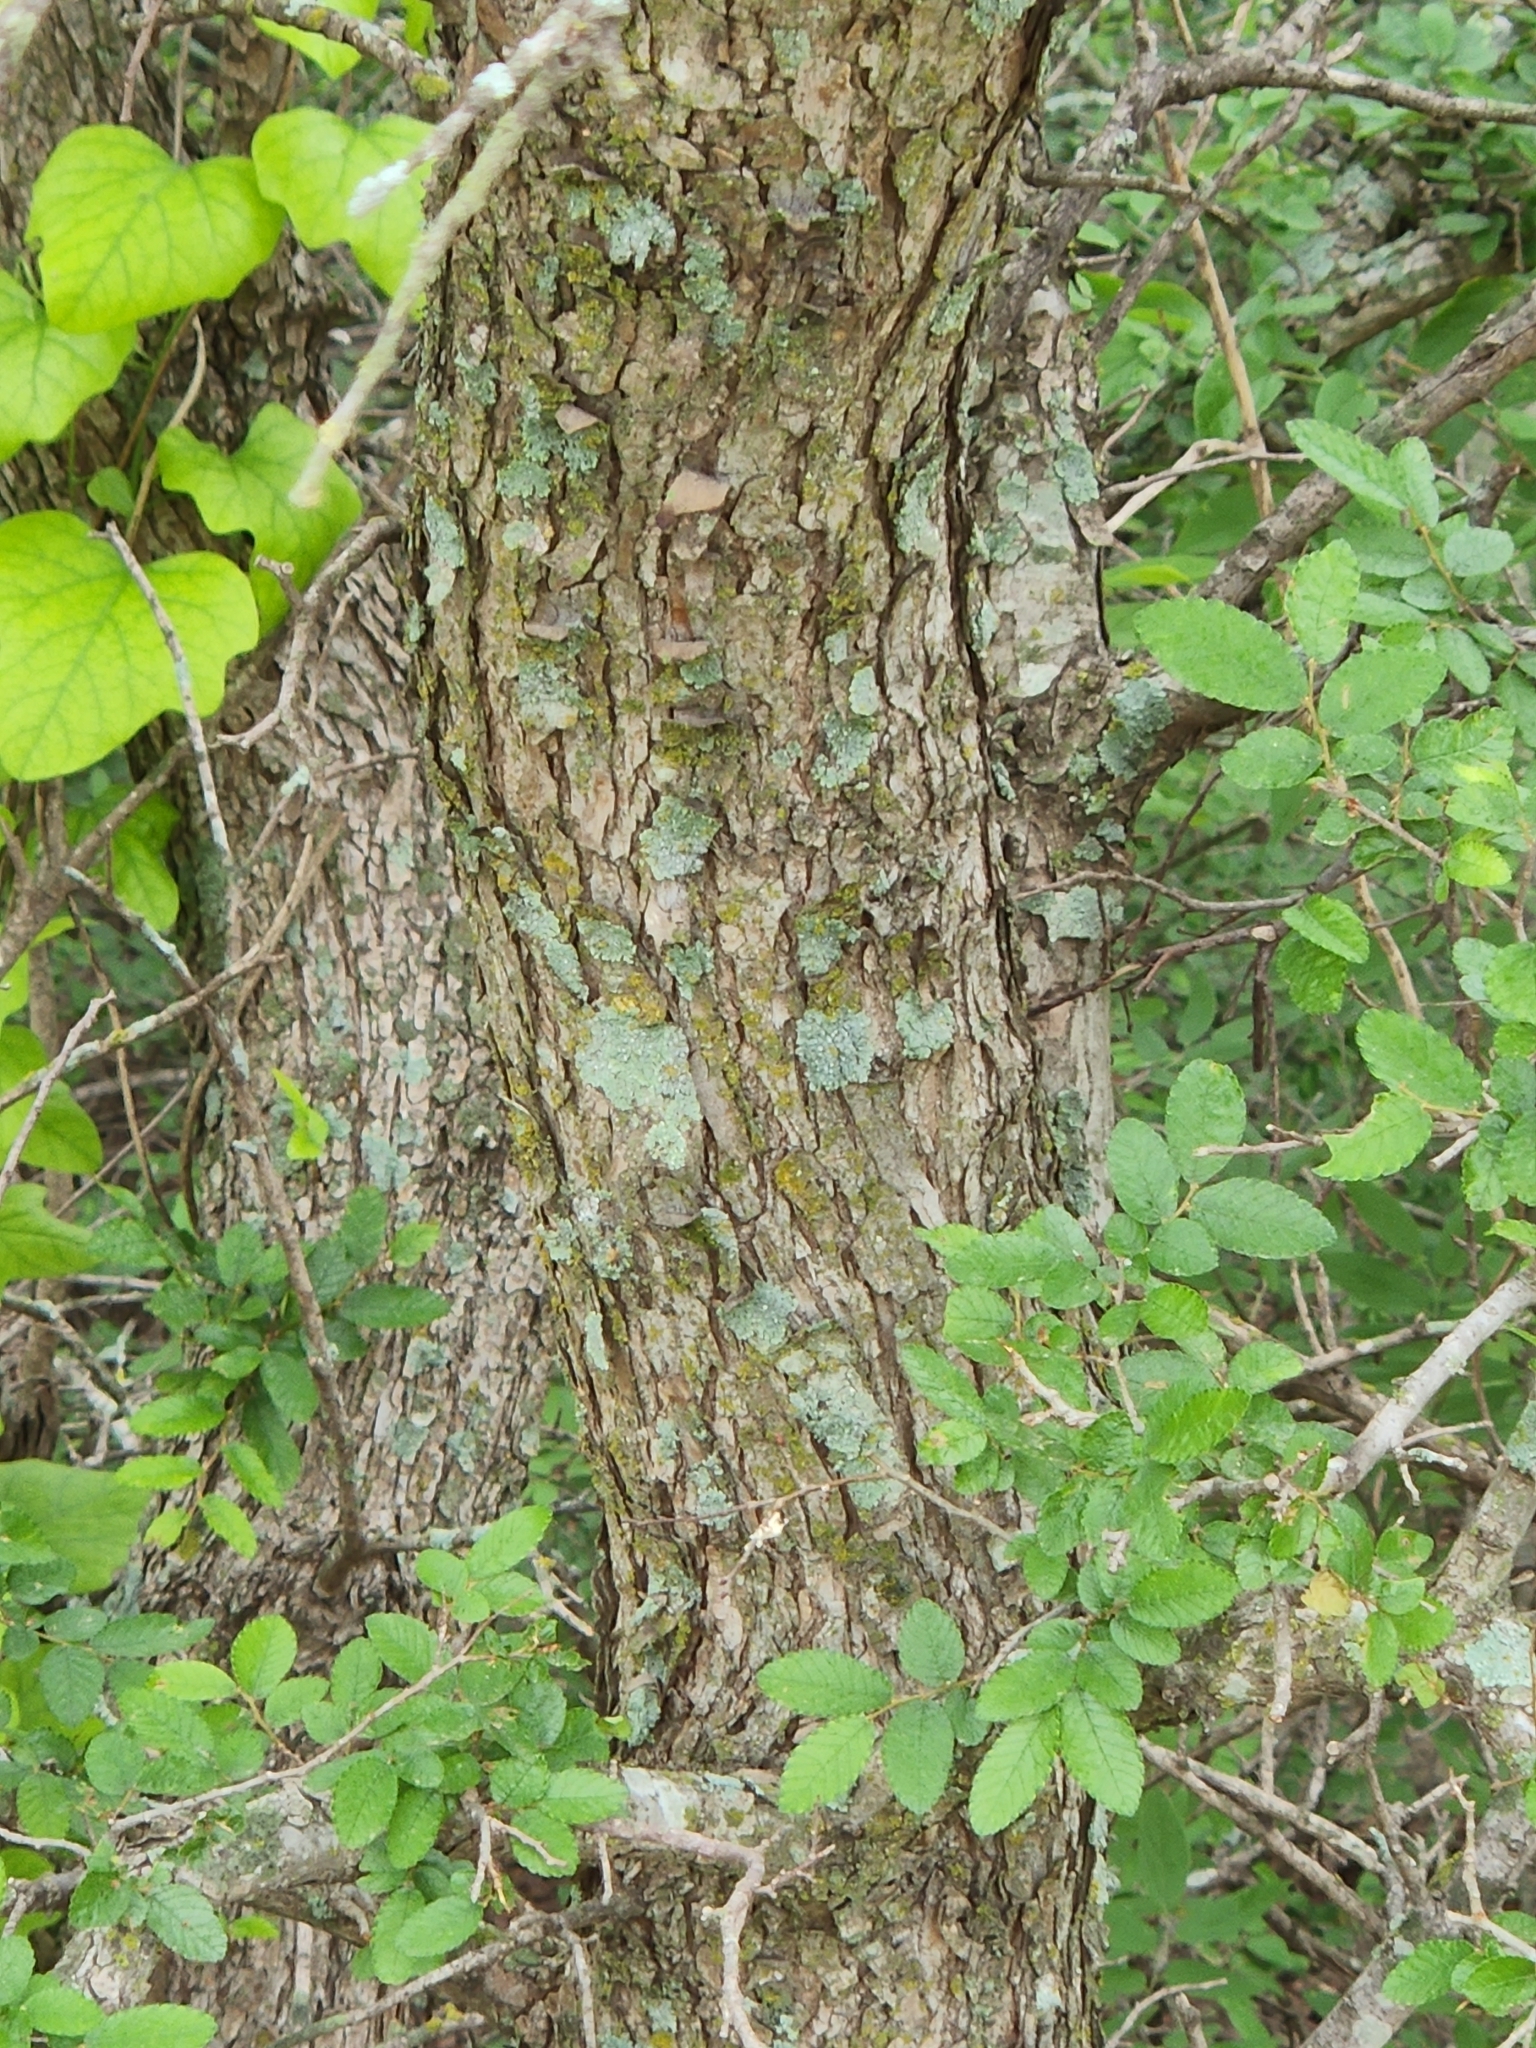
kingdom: Plantae
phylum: Tracheophyta
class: Magnoliopsida
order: Rosales
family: Ulmaceae
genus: Ulmus
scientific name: Ulmus crassifolia
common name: Basket elm
